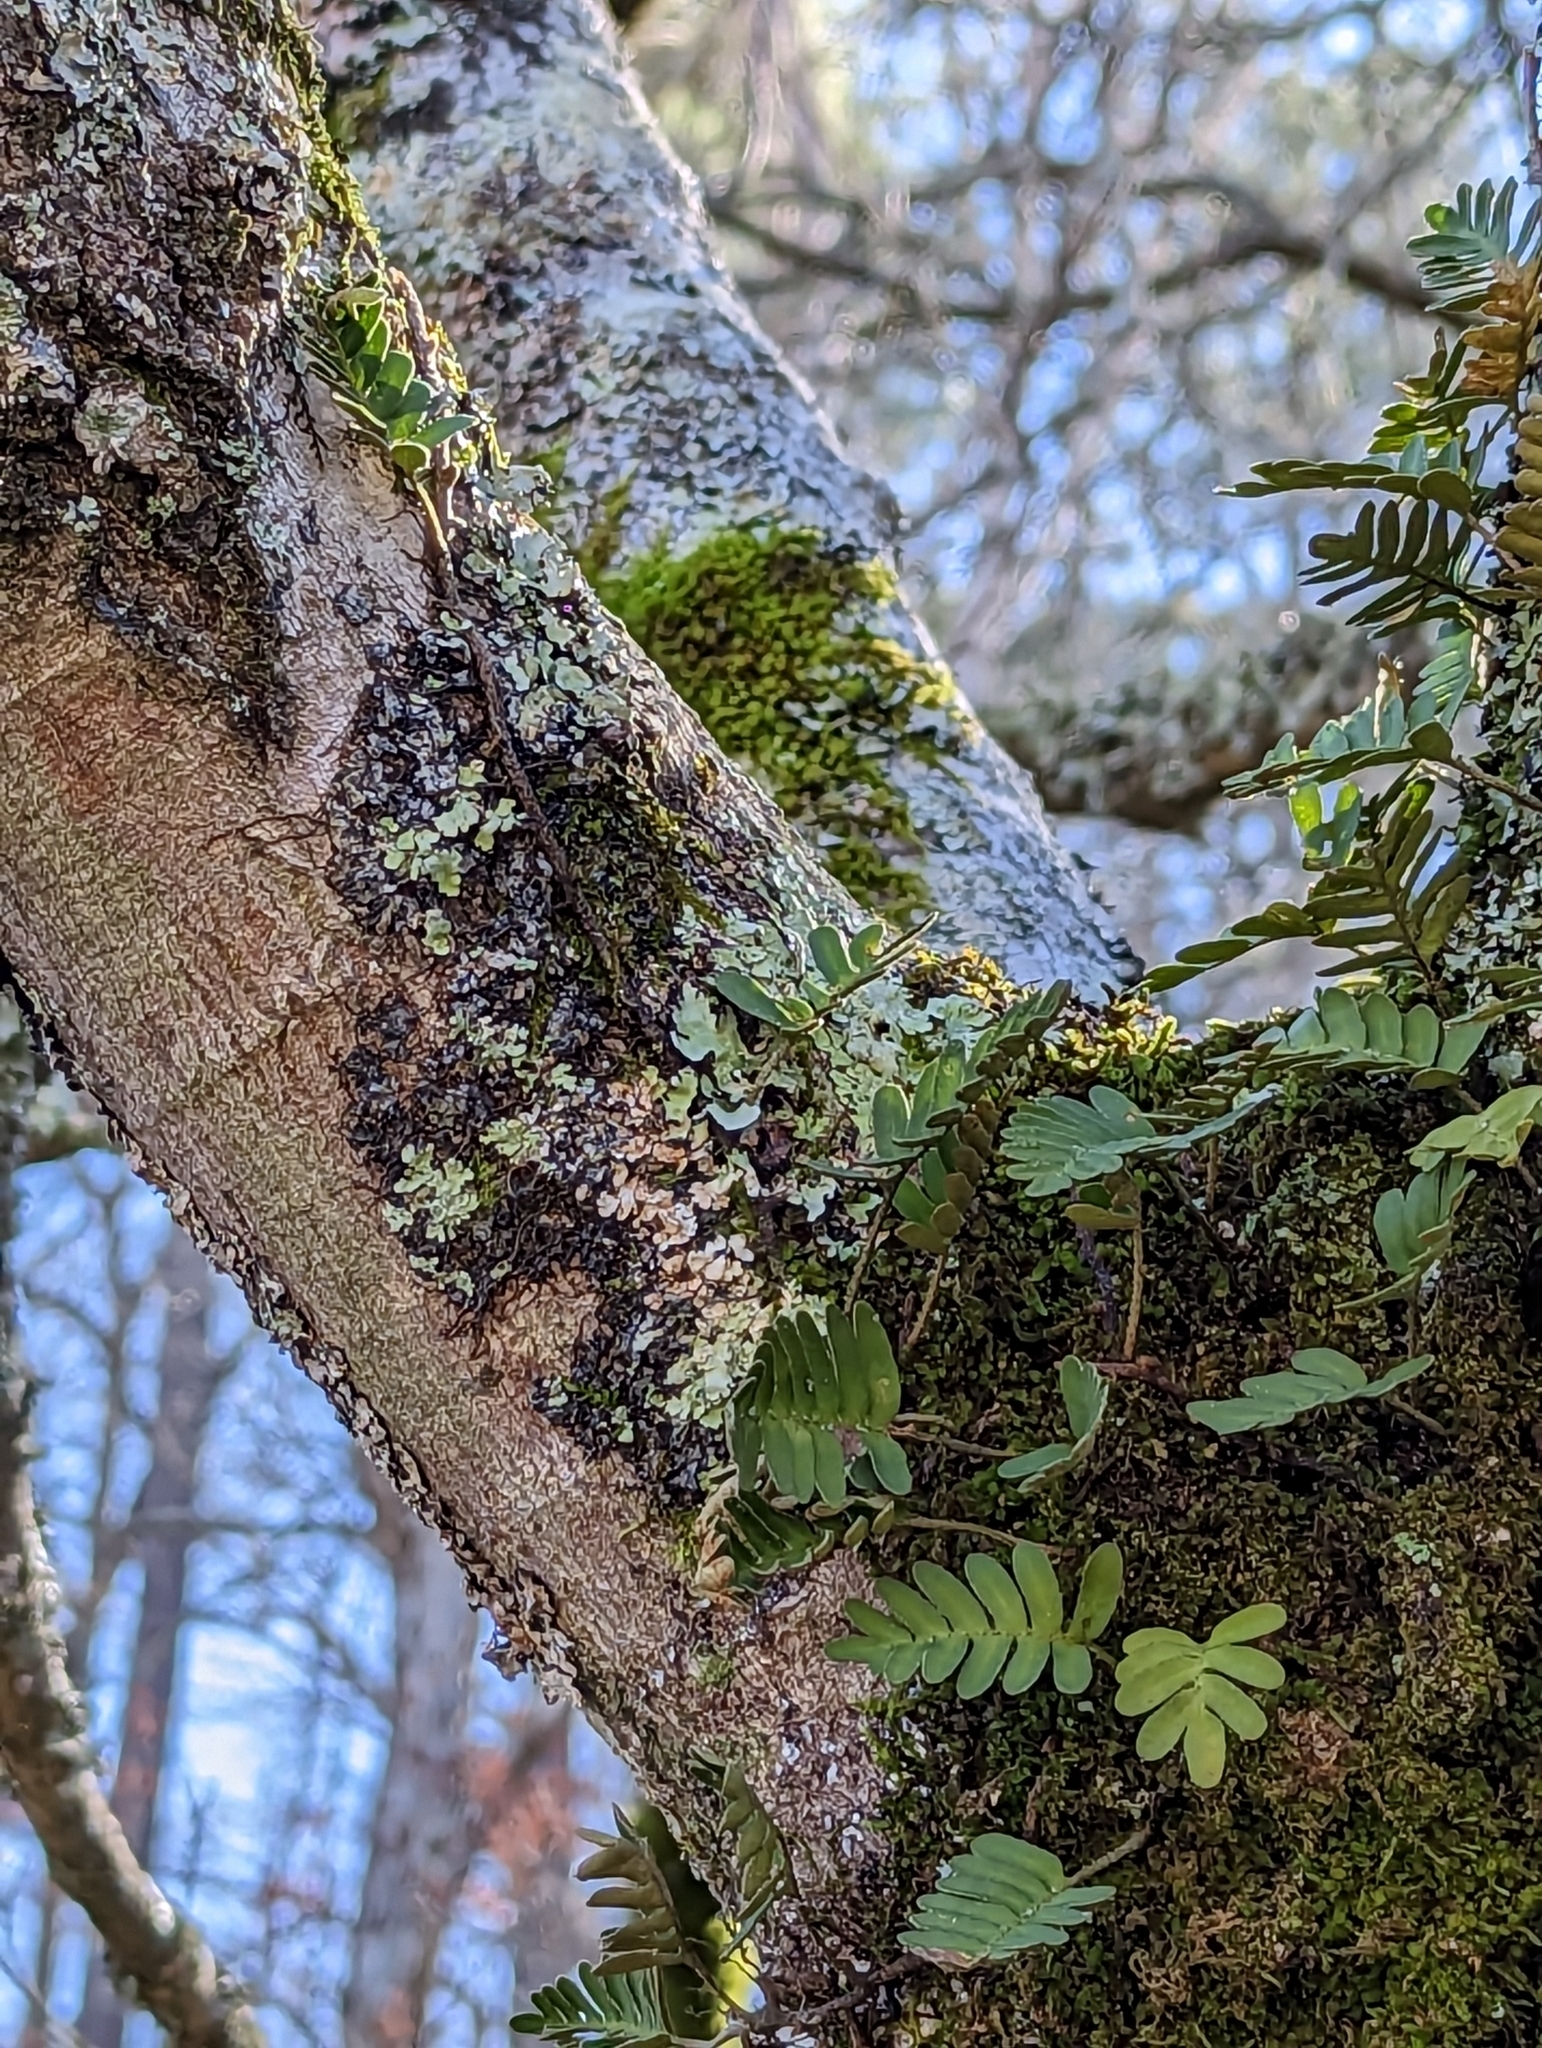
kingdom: Plantae
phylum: Tracheophyta
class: Polypodiopsida
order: Polypodiales
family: Polypodiaceae
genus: Pleopeltis
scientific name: Pleopeltis michauxiana
